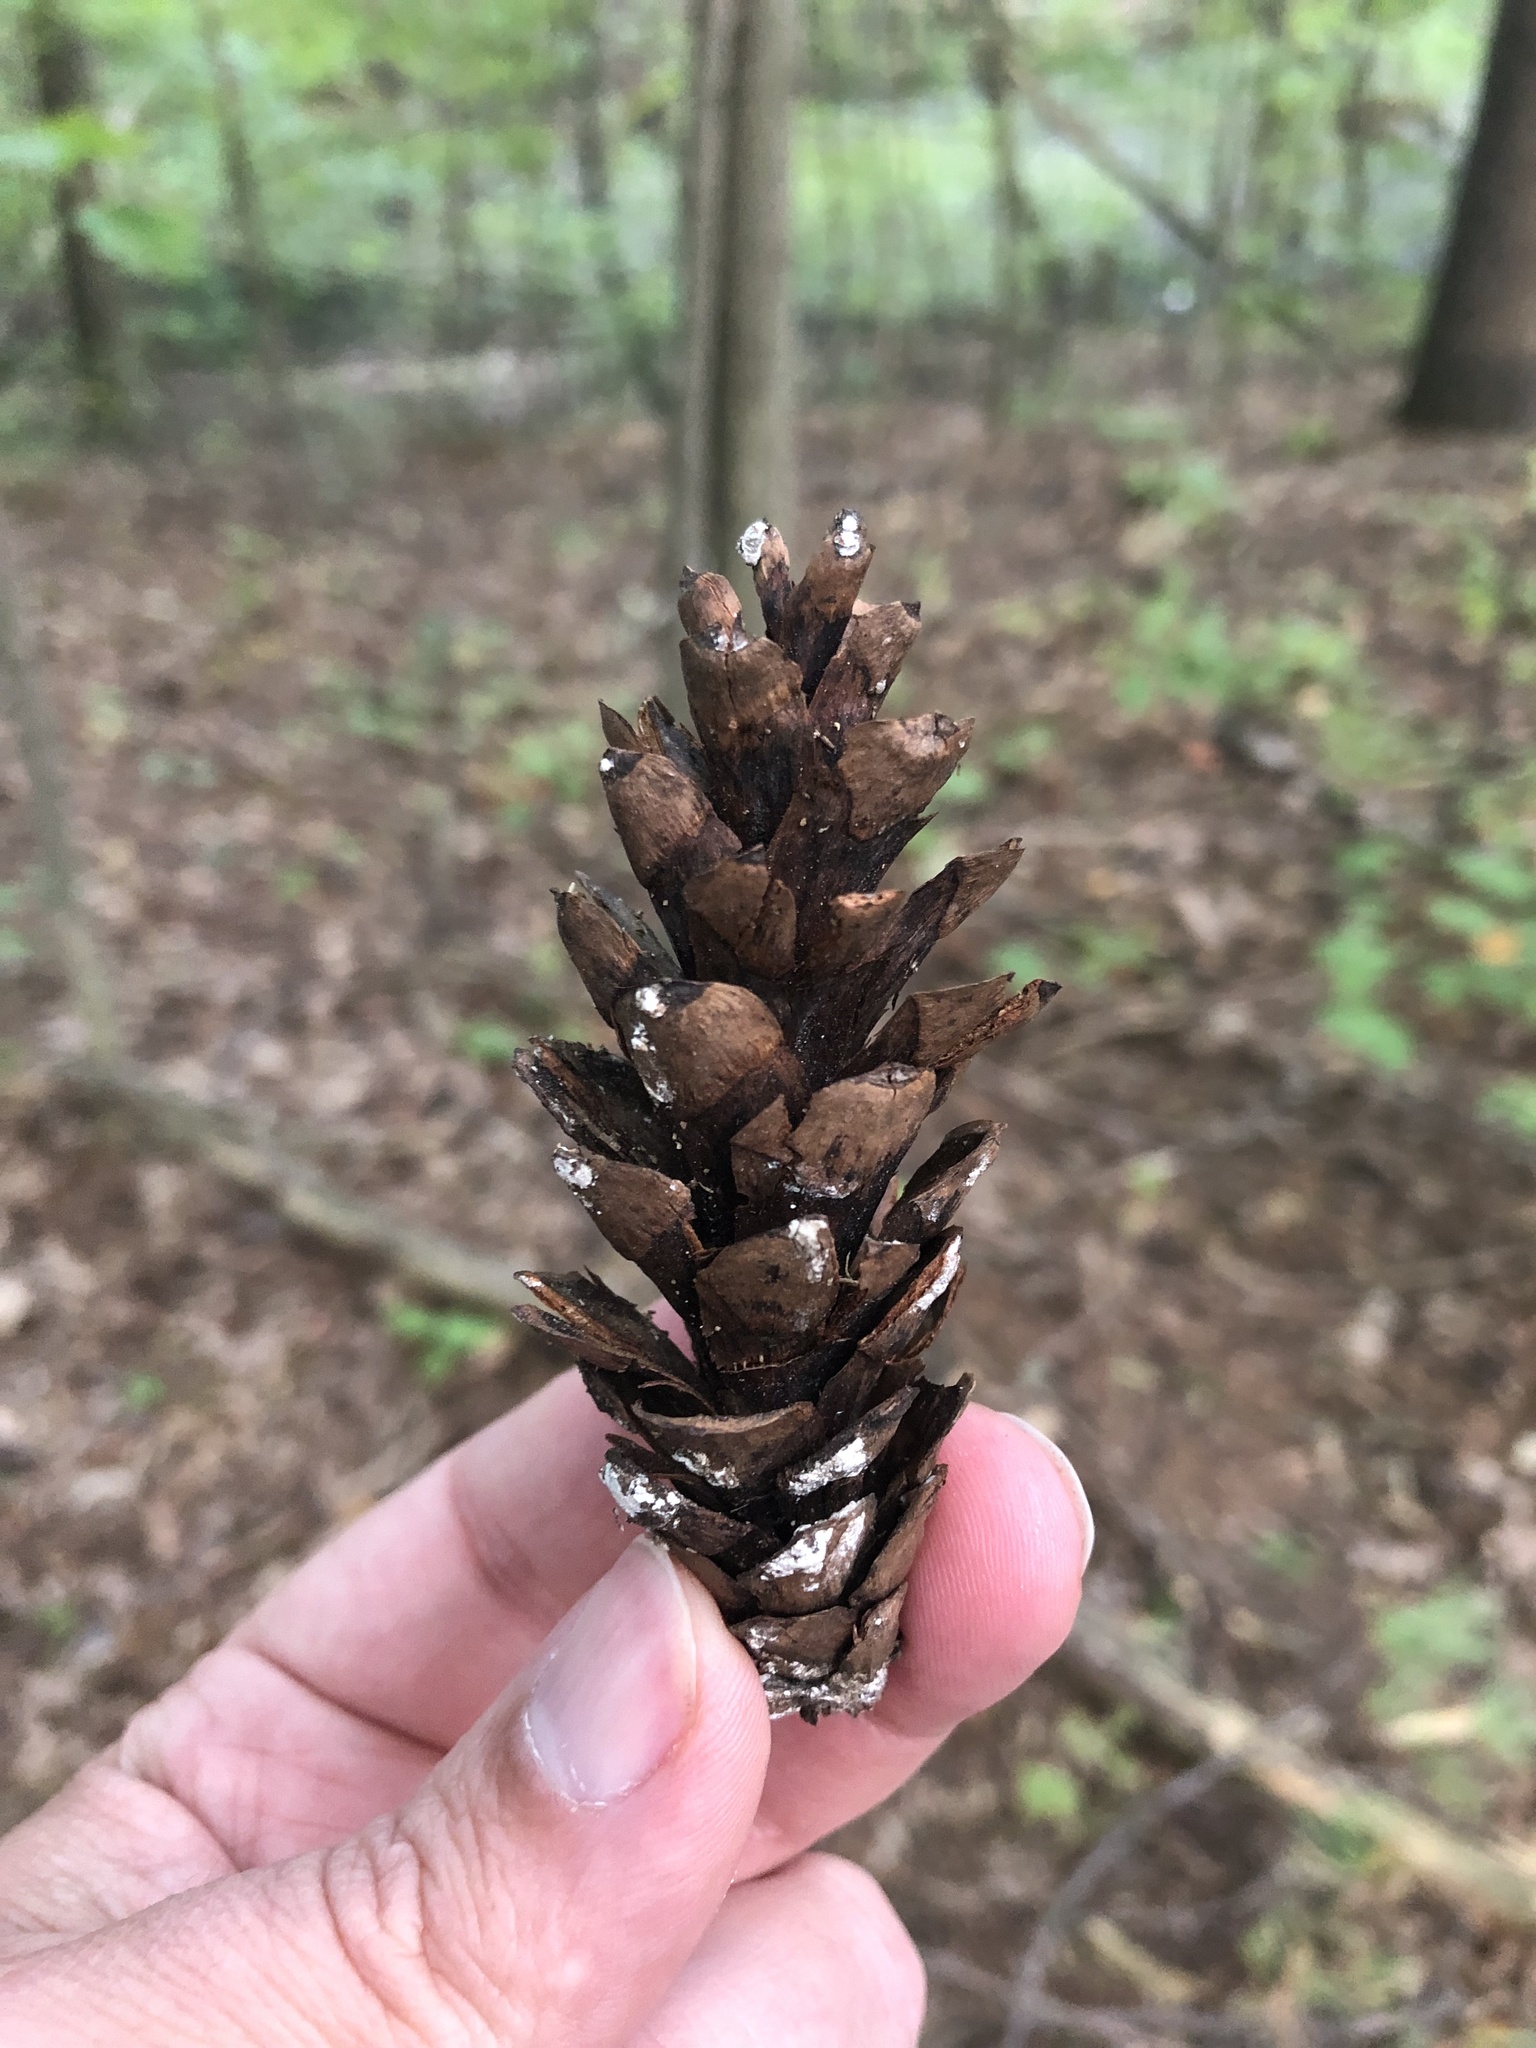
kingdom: Plantae
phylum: Tracheophyta
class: Pinopsida
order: Pinales
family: Pinaceae
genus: Pinus
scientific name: Pinus strobus
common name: Weymouth pine
